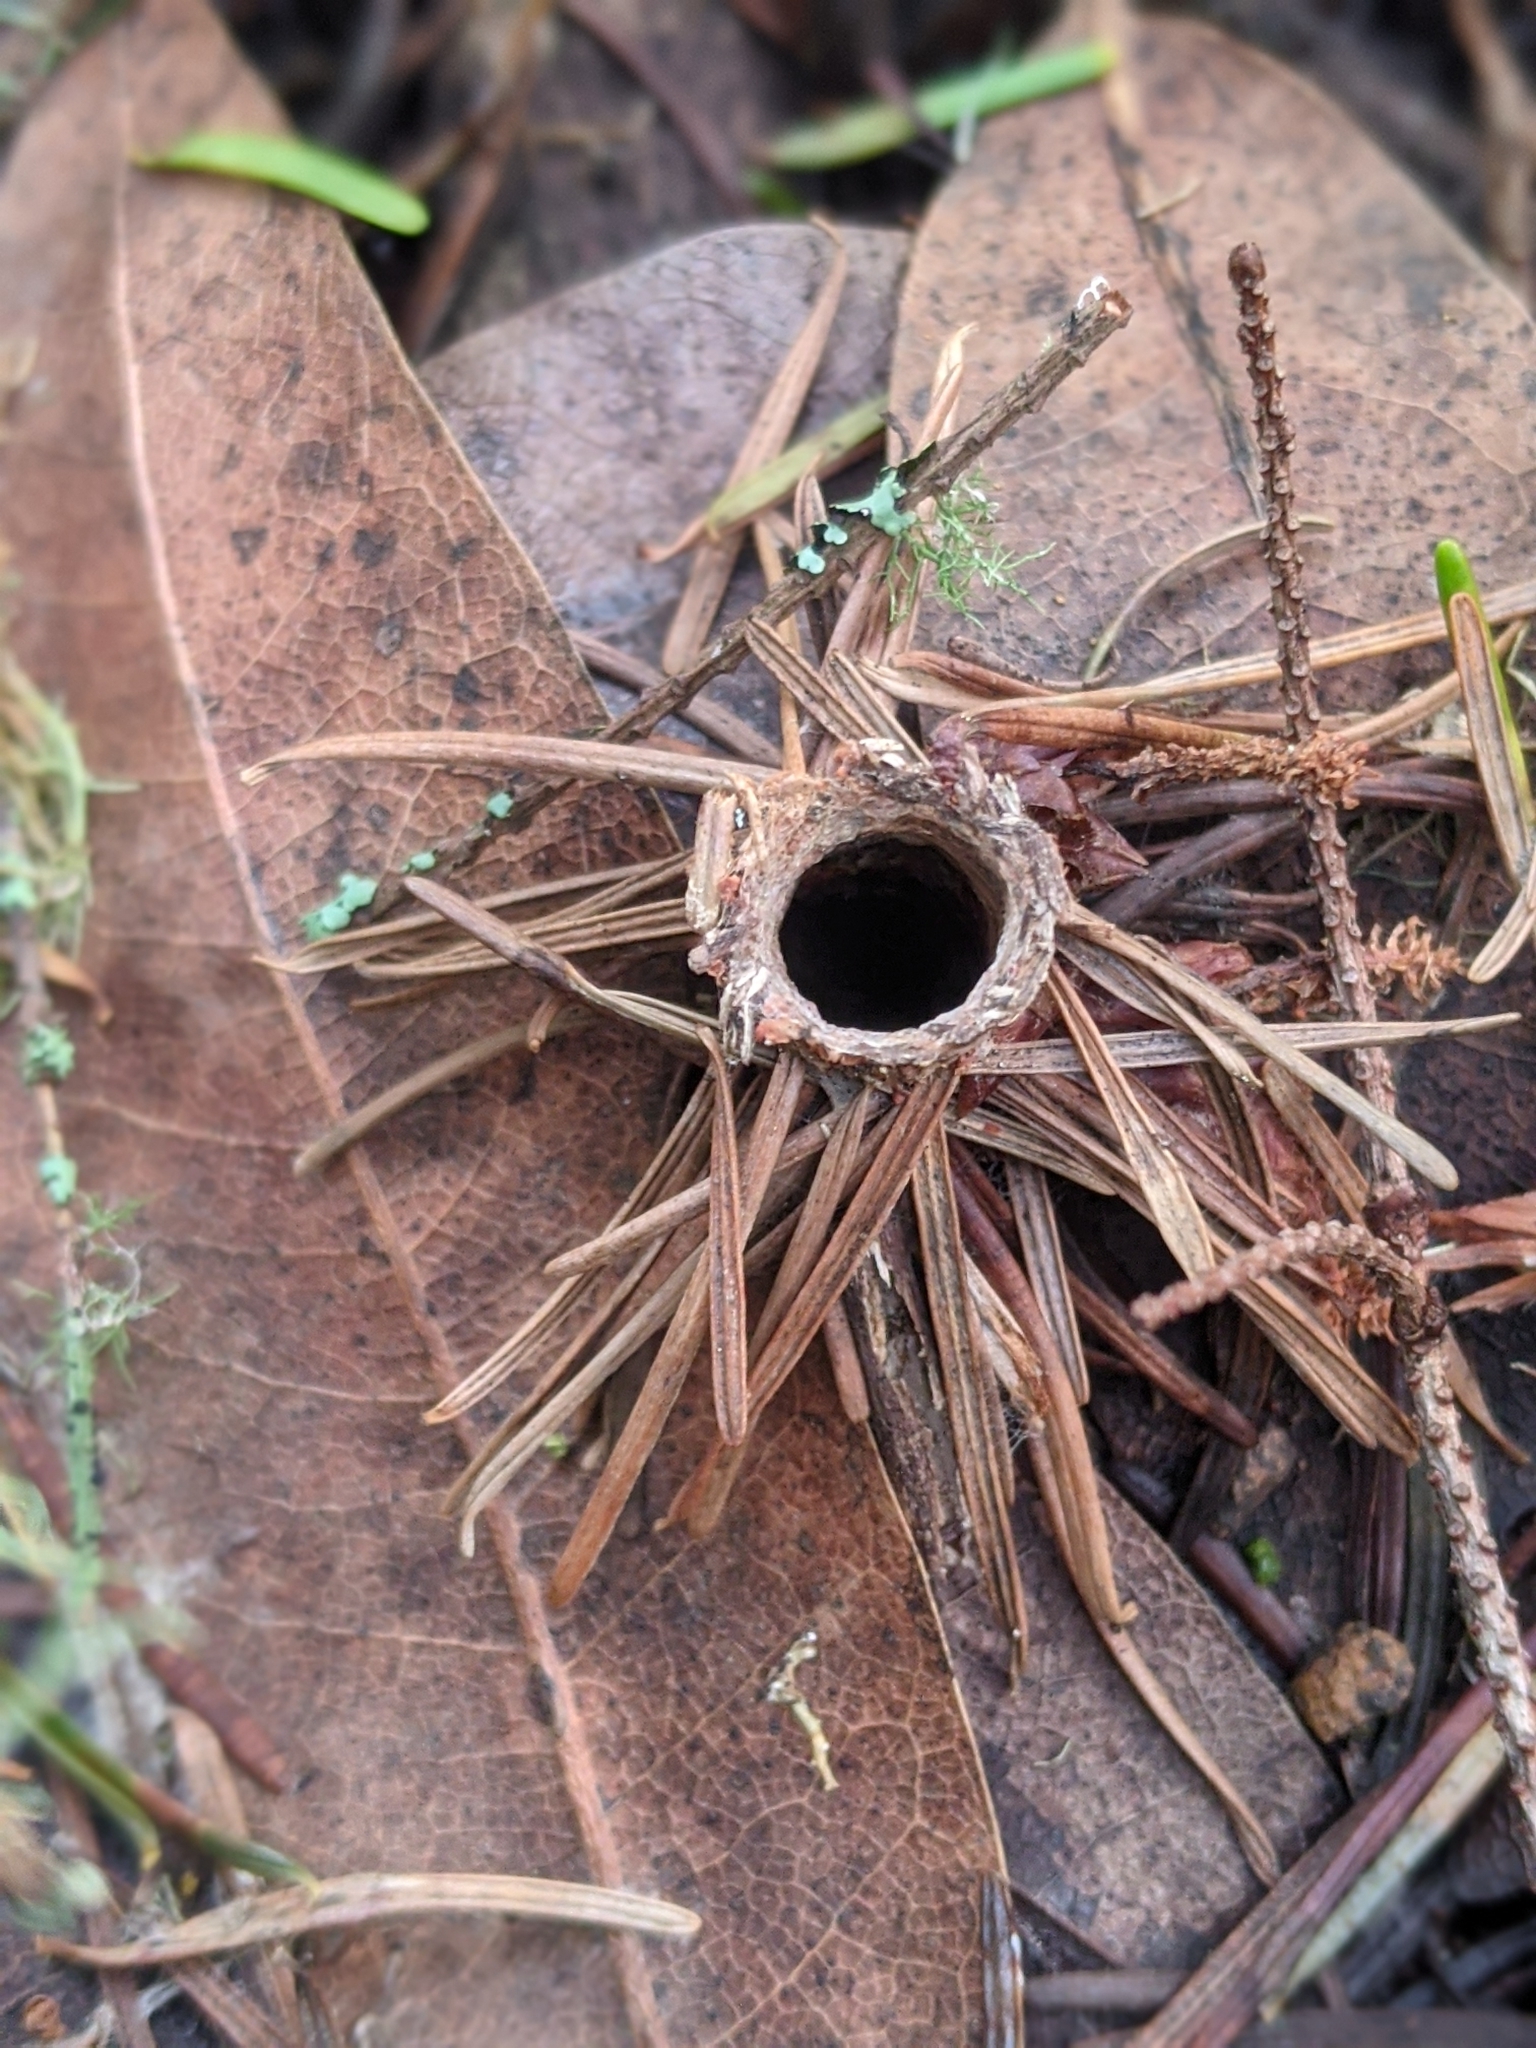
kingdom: Animalia
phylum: Arthropoda
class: Arachnida
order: Araneae
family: Antrodiaetidae
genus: Atypoides
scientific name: Atypoides riversi
